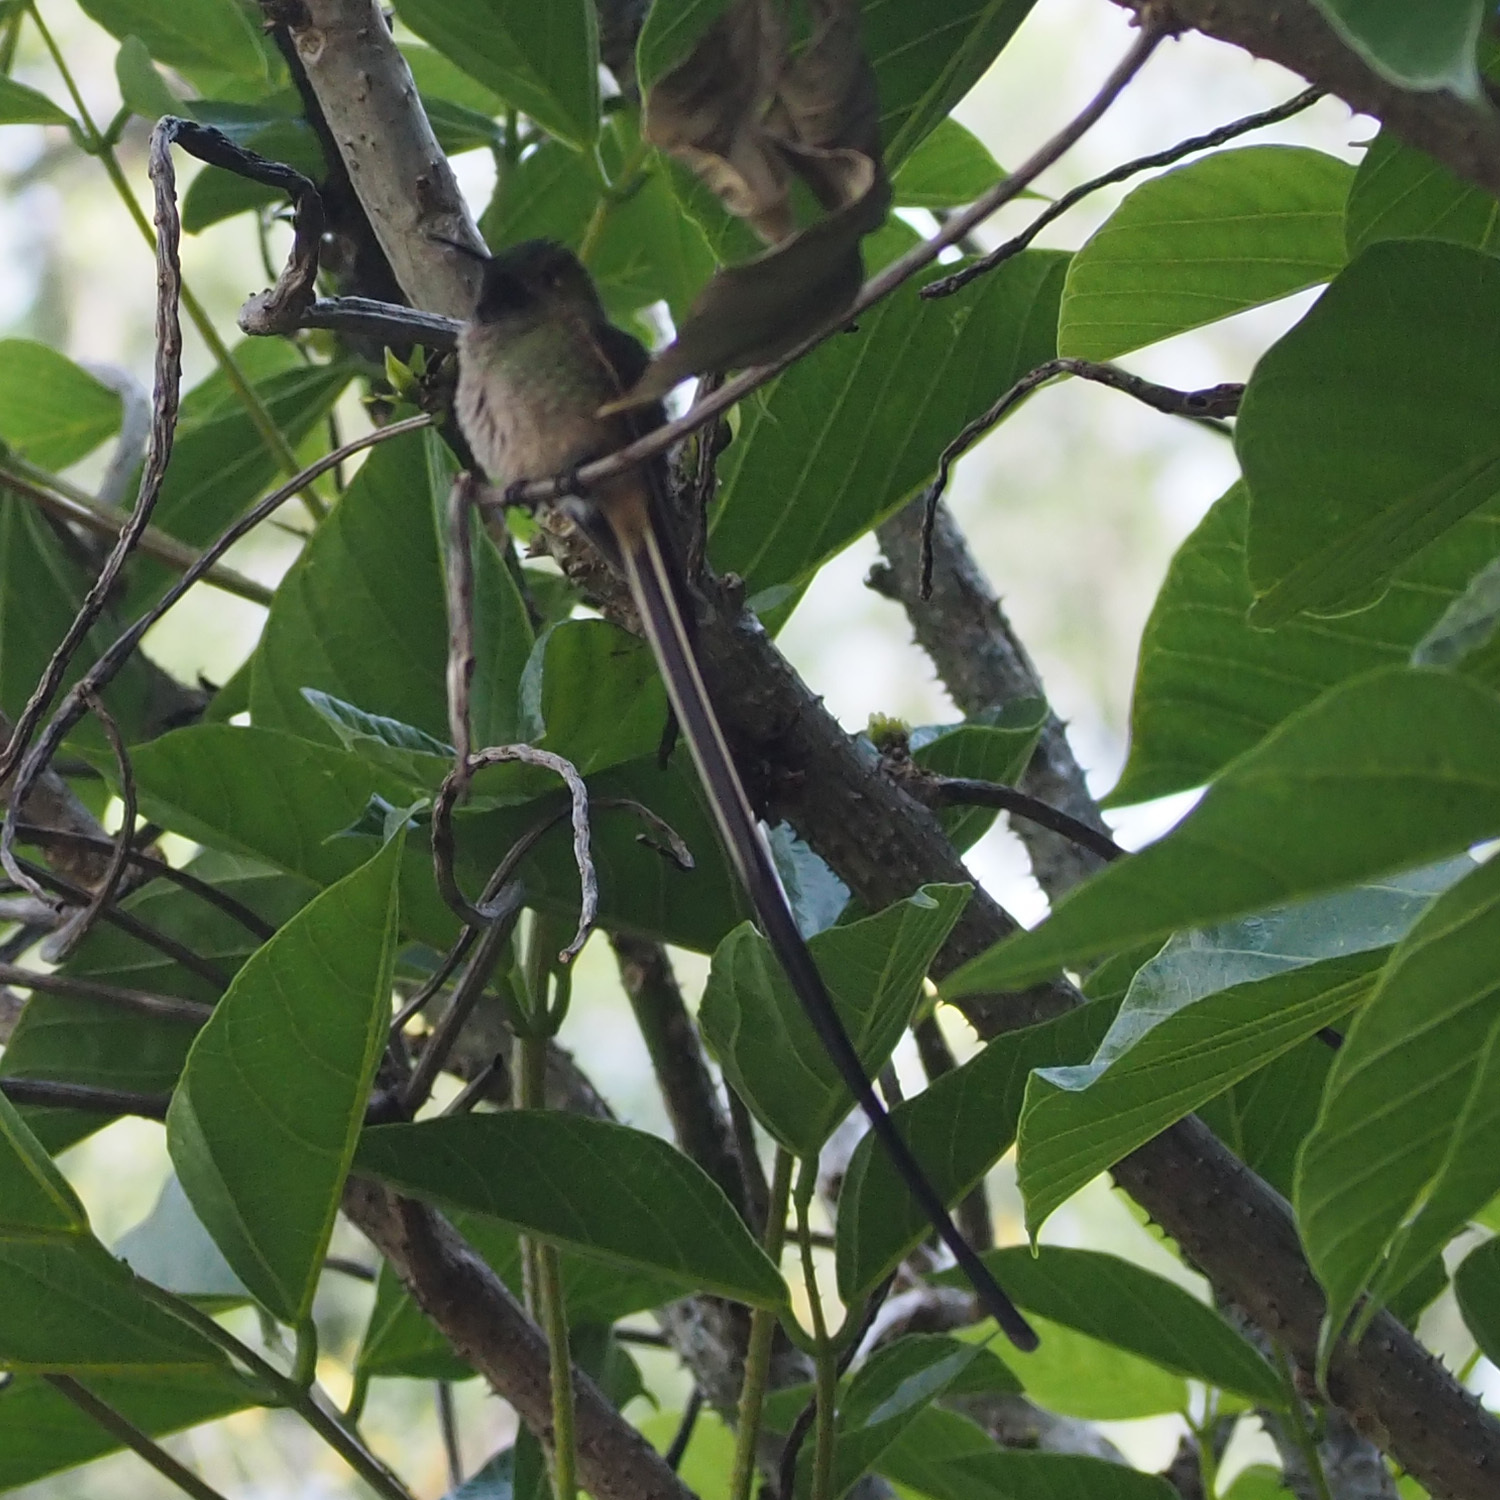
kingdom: Animalia
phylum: Chordata
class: Aves
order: Apodiformes
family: Trochilidae
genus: Lesbia
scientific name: Lesbia victoriae
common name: Black-tailed trainbearer
